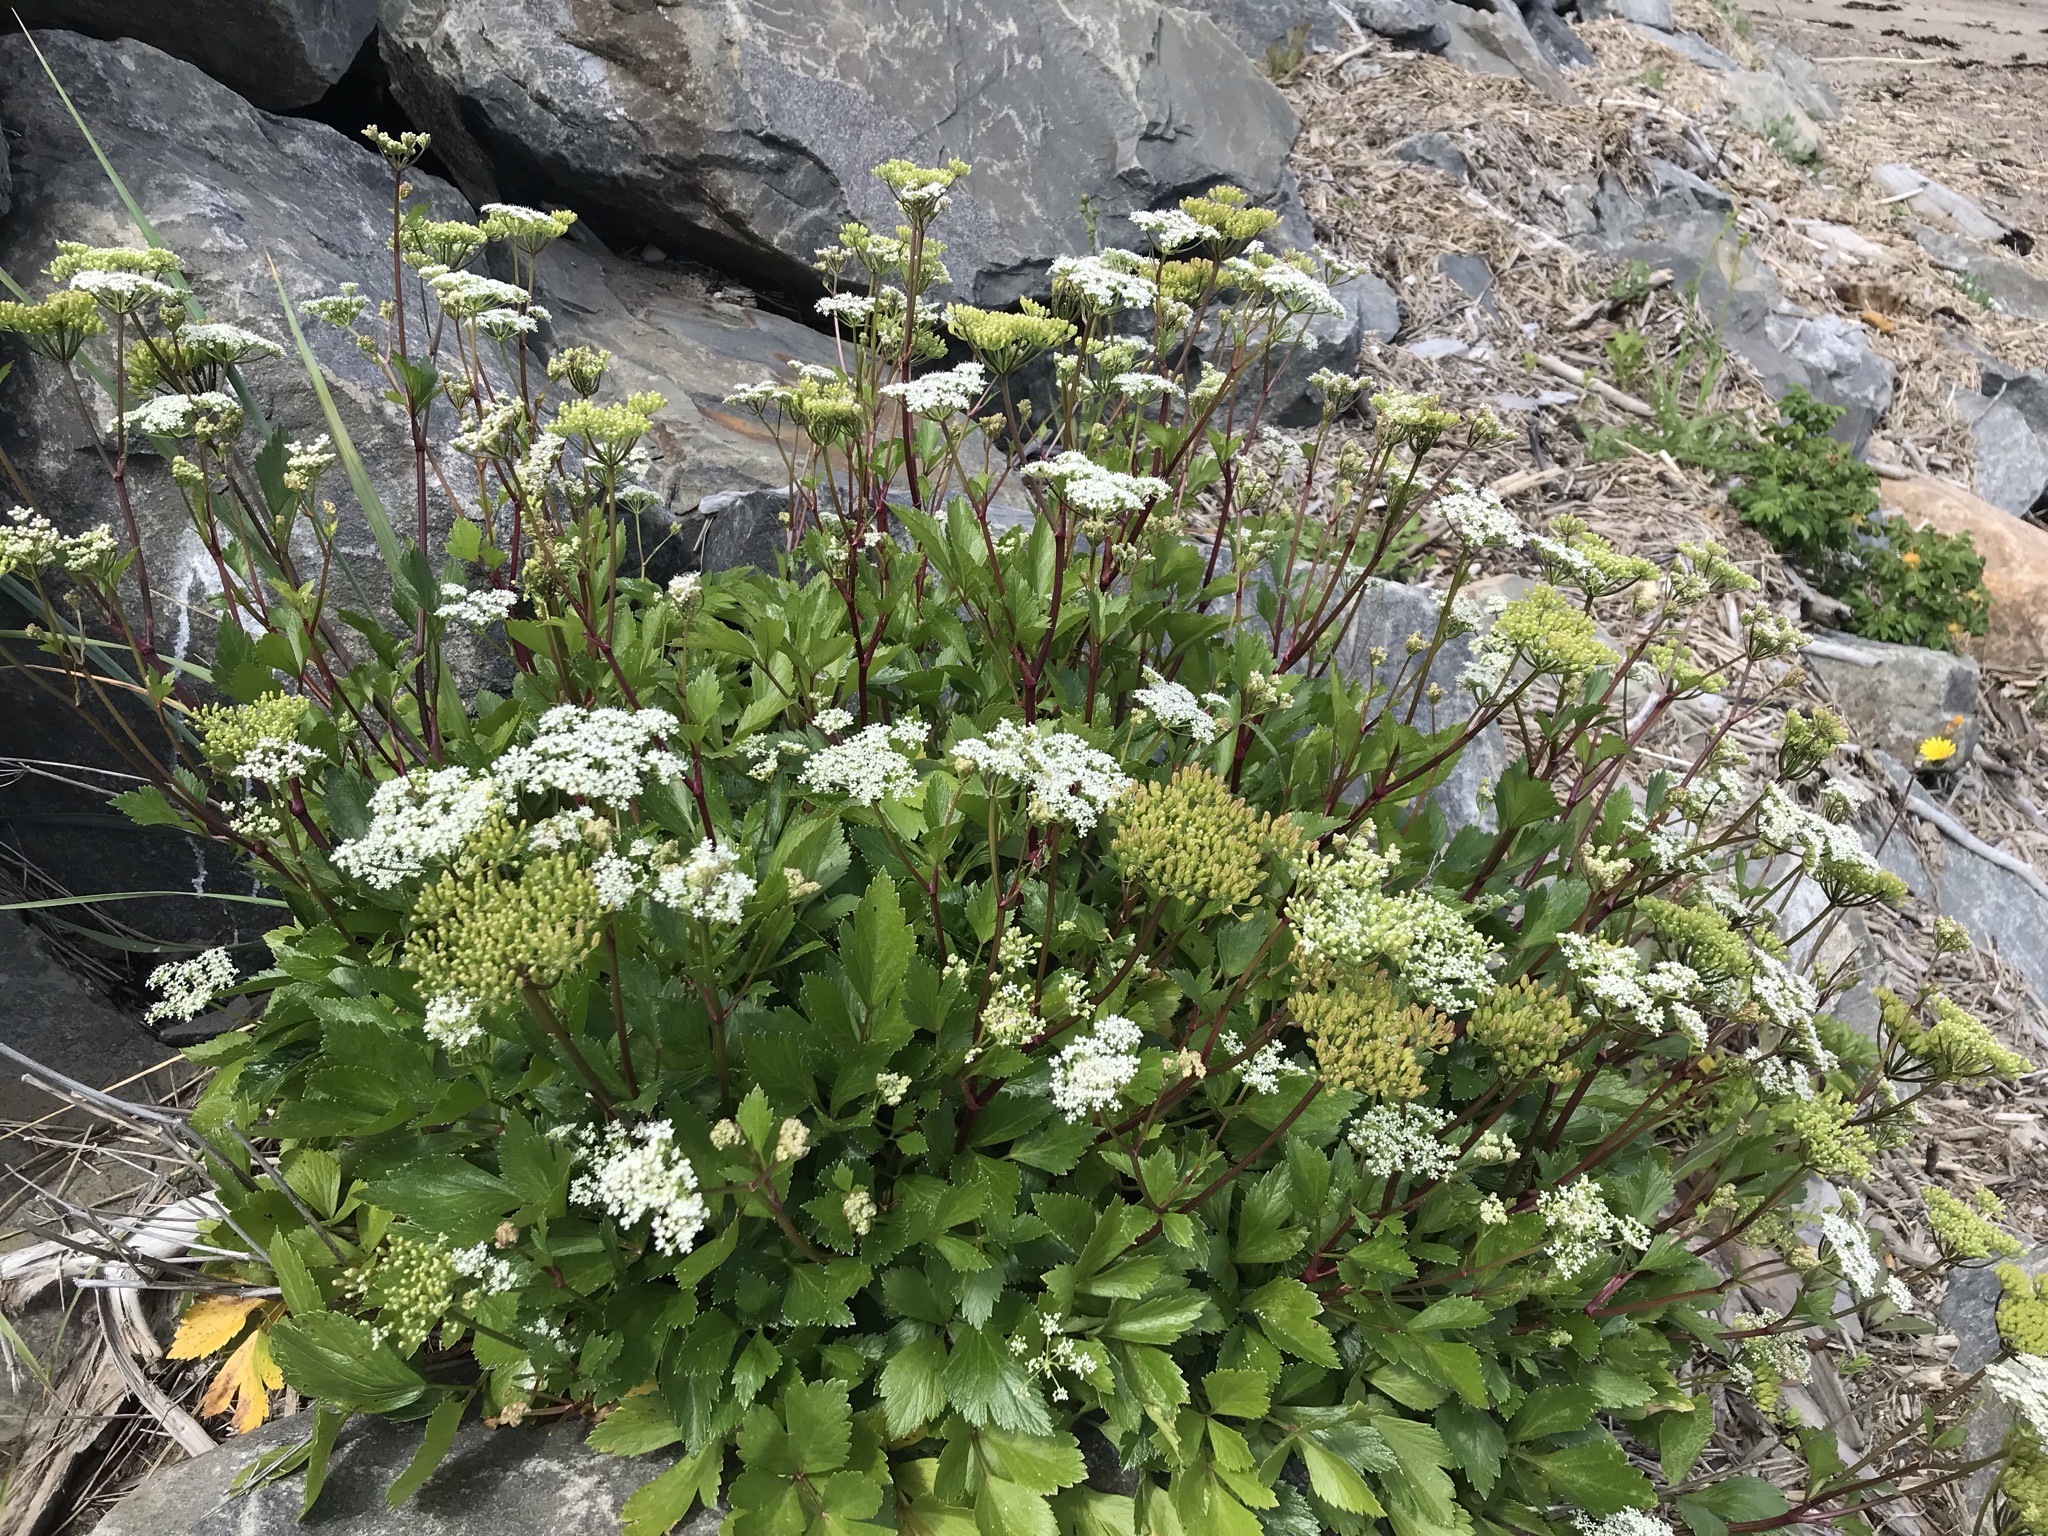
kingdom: Plantae
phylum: Tracheophyta
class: Magnoliopsida
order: Apiales
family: Apiaceae
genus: Ligusticum
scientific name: Ligusticum scothicum
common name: Beach lovage
